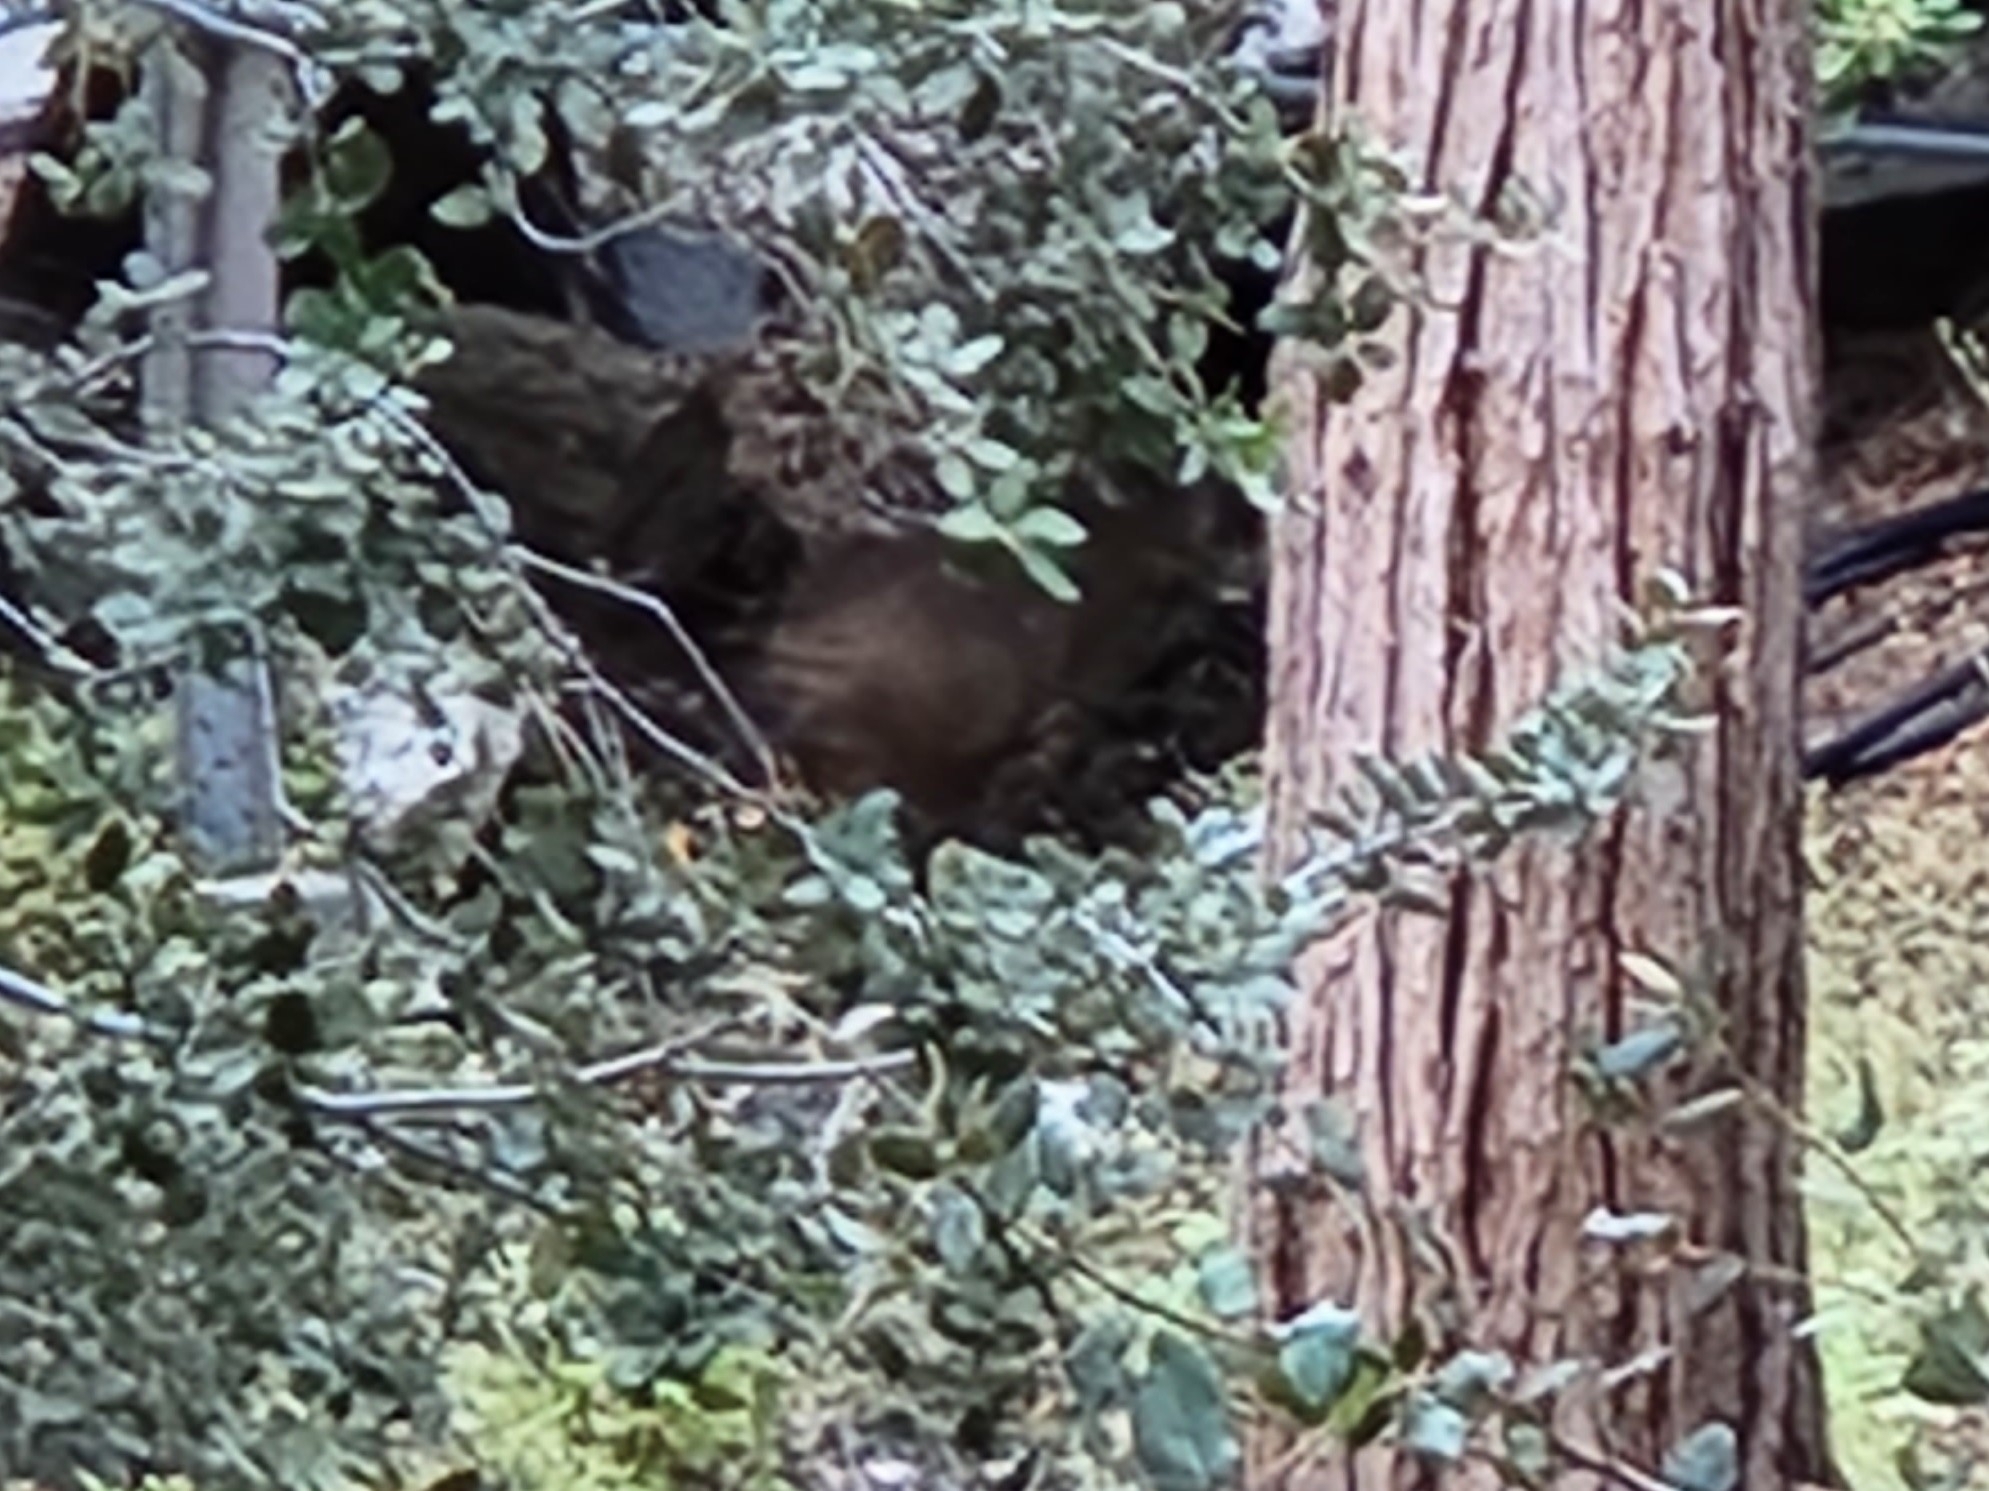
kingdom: Animalia
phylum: Chordata
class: Mammalia
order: Carnivora
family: Felidae
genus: Lynx
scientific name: Lynx rufus
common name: Bobcat
